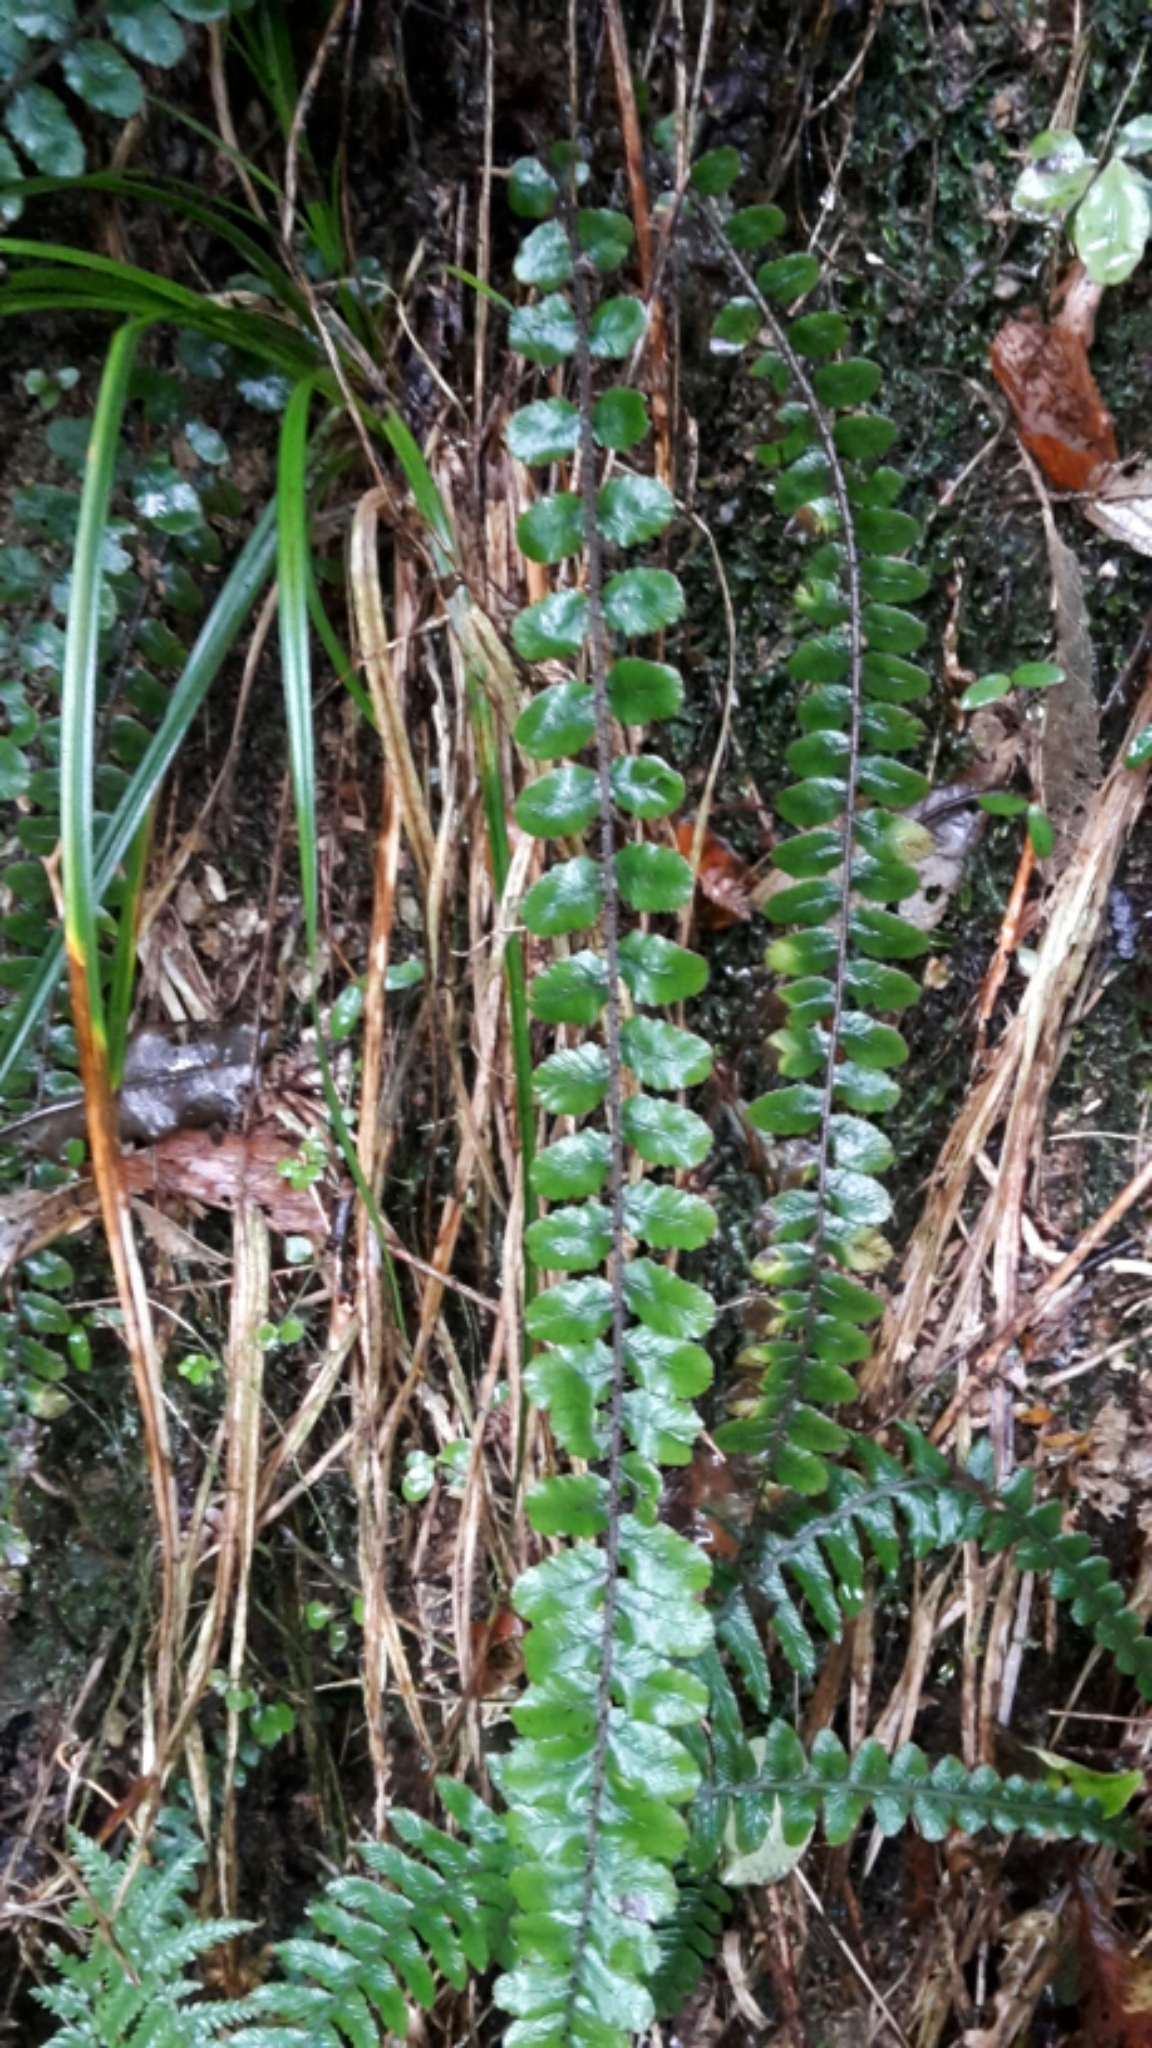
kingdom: Plantae
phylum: Tracheophyta
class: Polypodiopsida
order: Polypodiales
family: Blechnaceae
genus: Cranfillia
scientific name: Cranfillia fluviatilis
